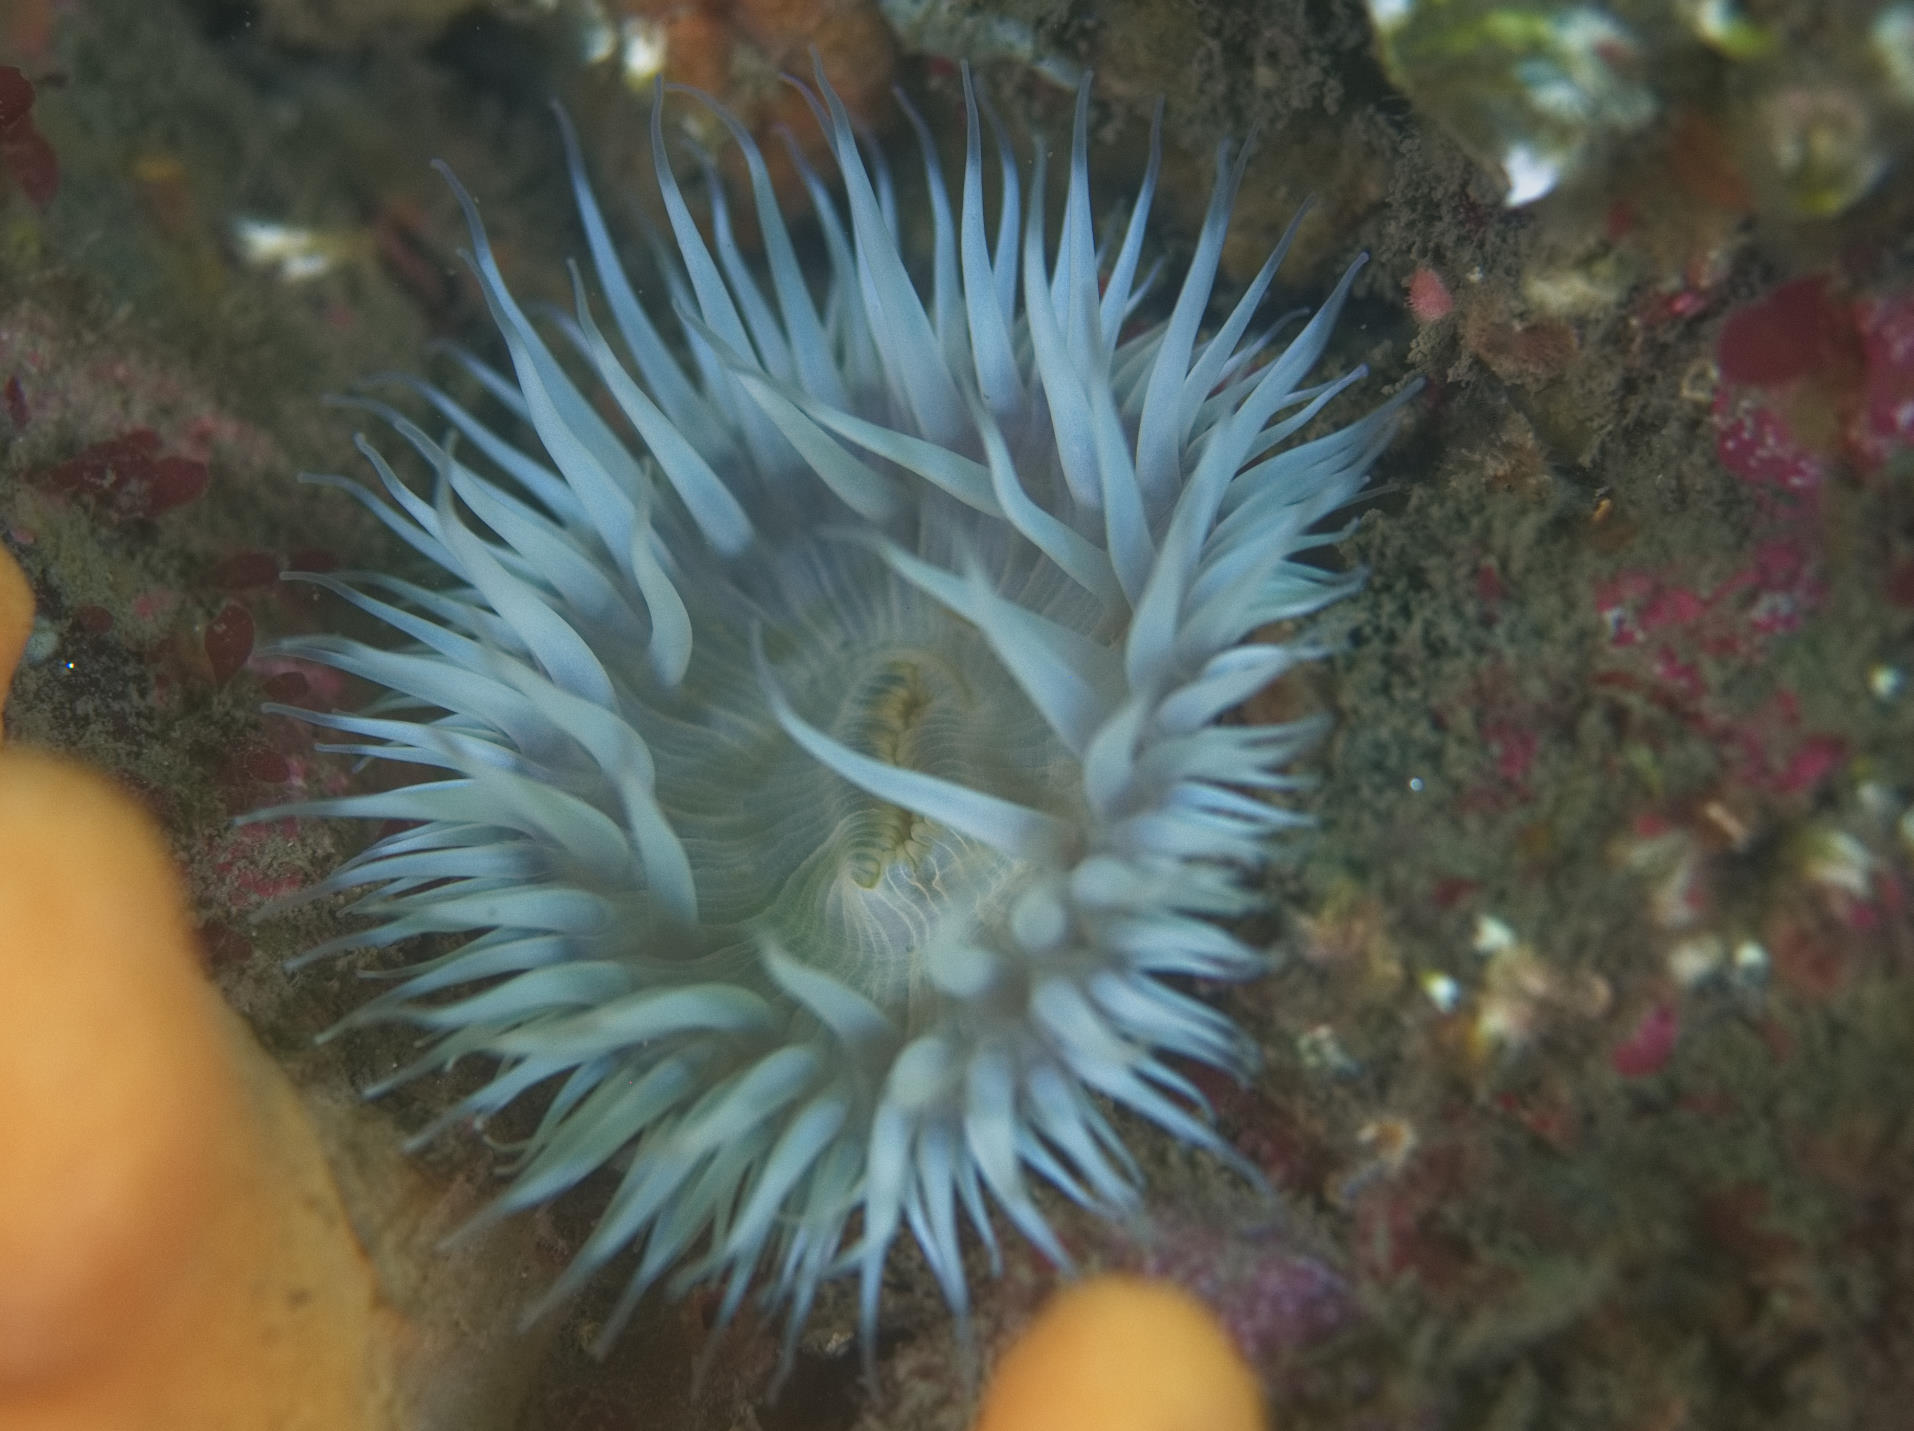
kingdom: Animalia
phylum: Cnidaria
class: Anthozoa
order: Actiniaria
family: Sagartiidae
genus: Cylista
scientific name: Cylista elegans
